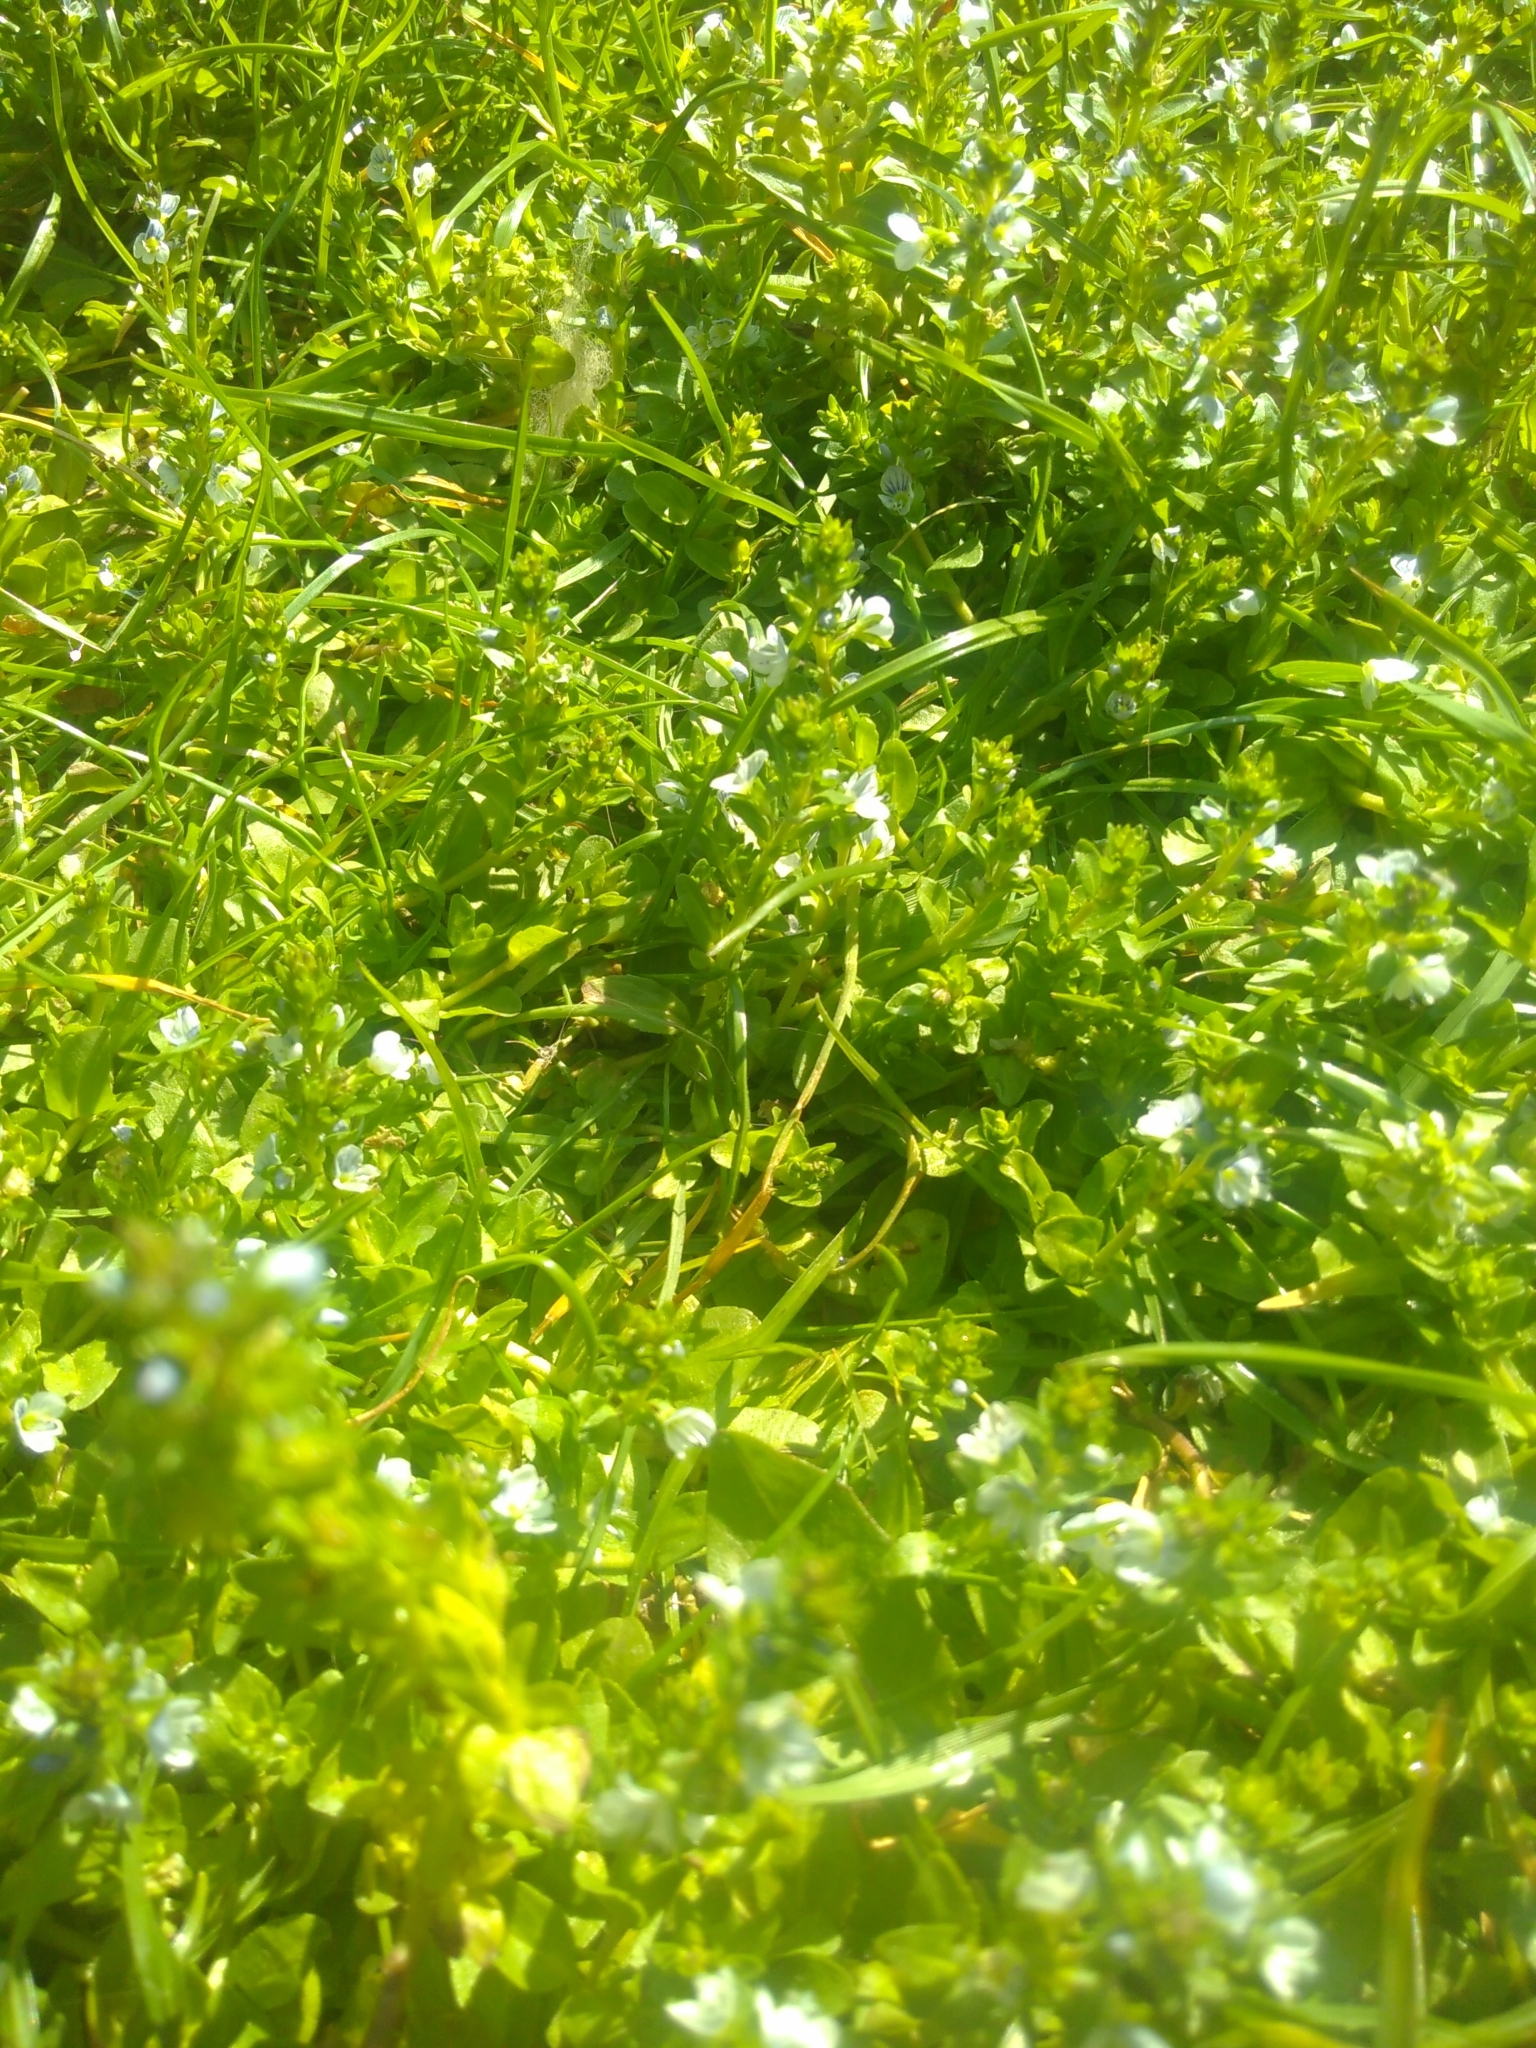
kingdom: Plantae
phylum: Tracheophyta
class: Magnoliopsida
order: Lamiales
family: Plantaginaceae
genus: Veronica
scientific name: Veronica serpyllifolia
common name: Thyme-leaved speedwell
